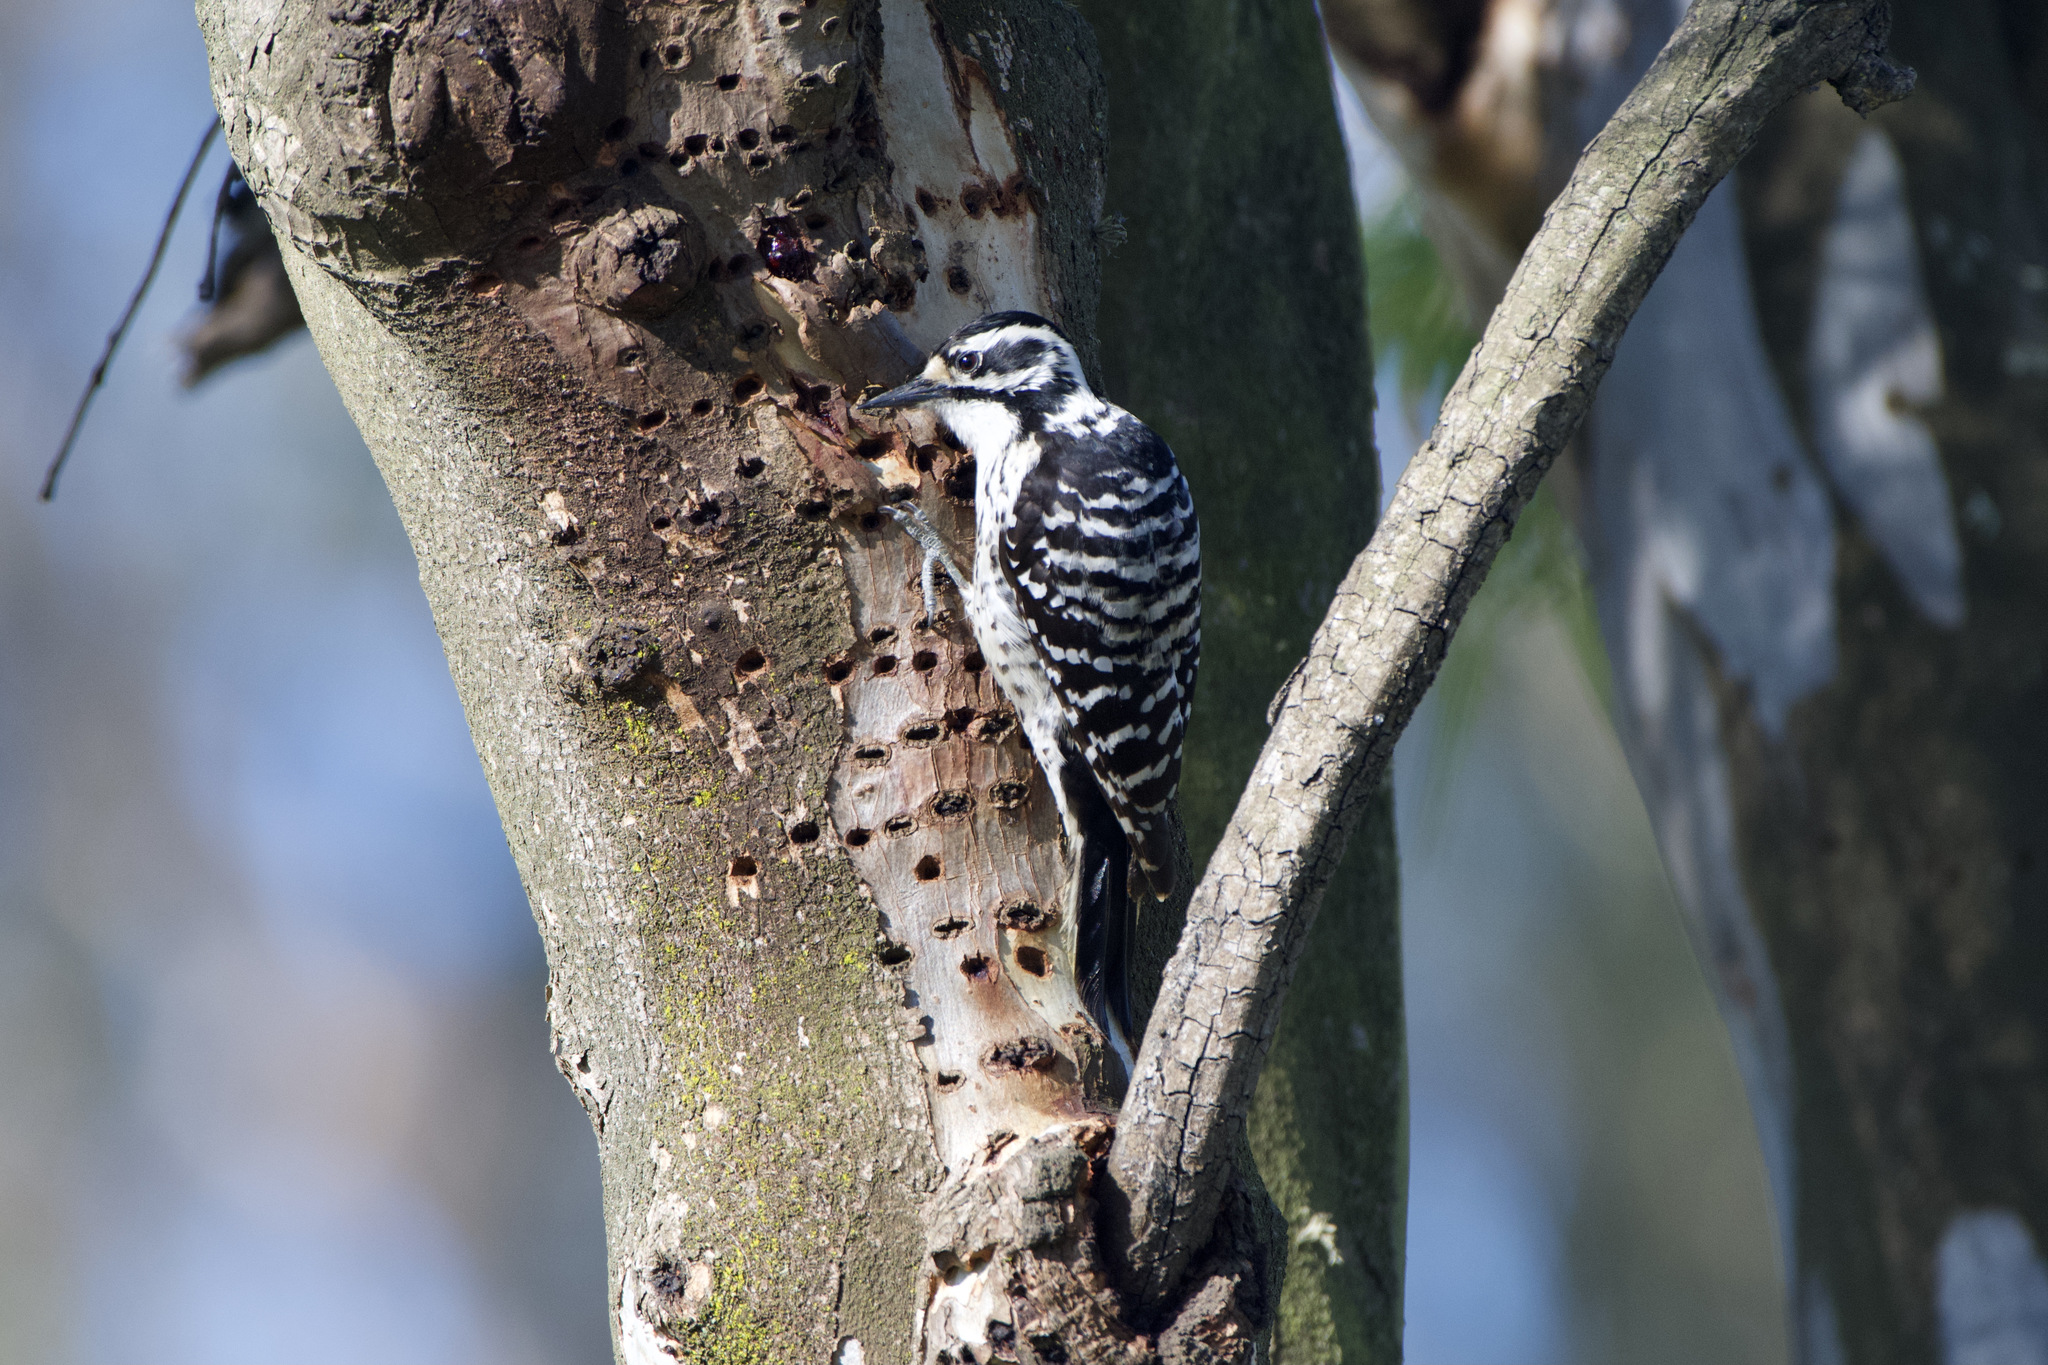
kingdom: Animalia
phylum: Chordata
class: Aves
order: Piciformes
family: Picidae
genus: Dryobates
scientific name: Dryobates nuttallii
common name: Nuttall's woodpecker
